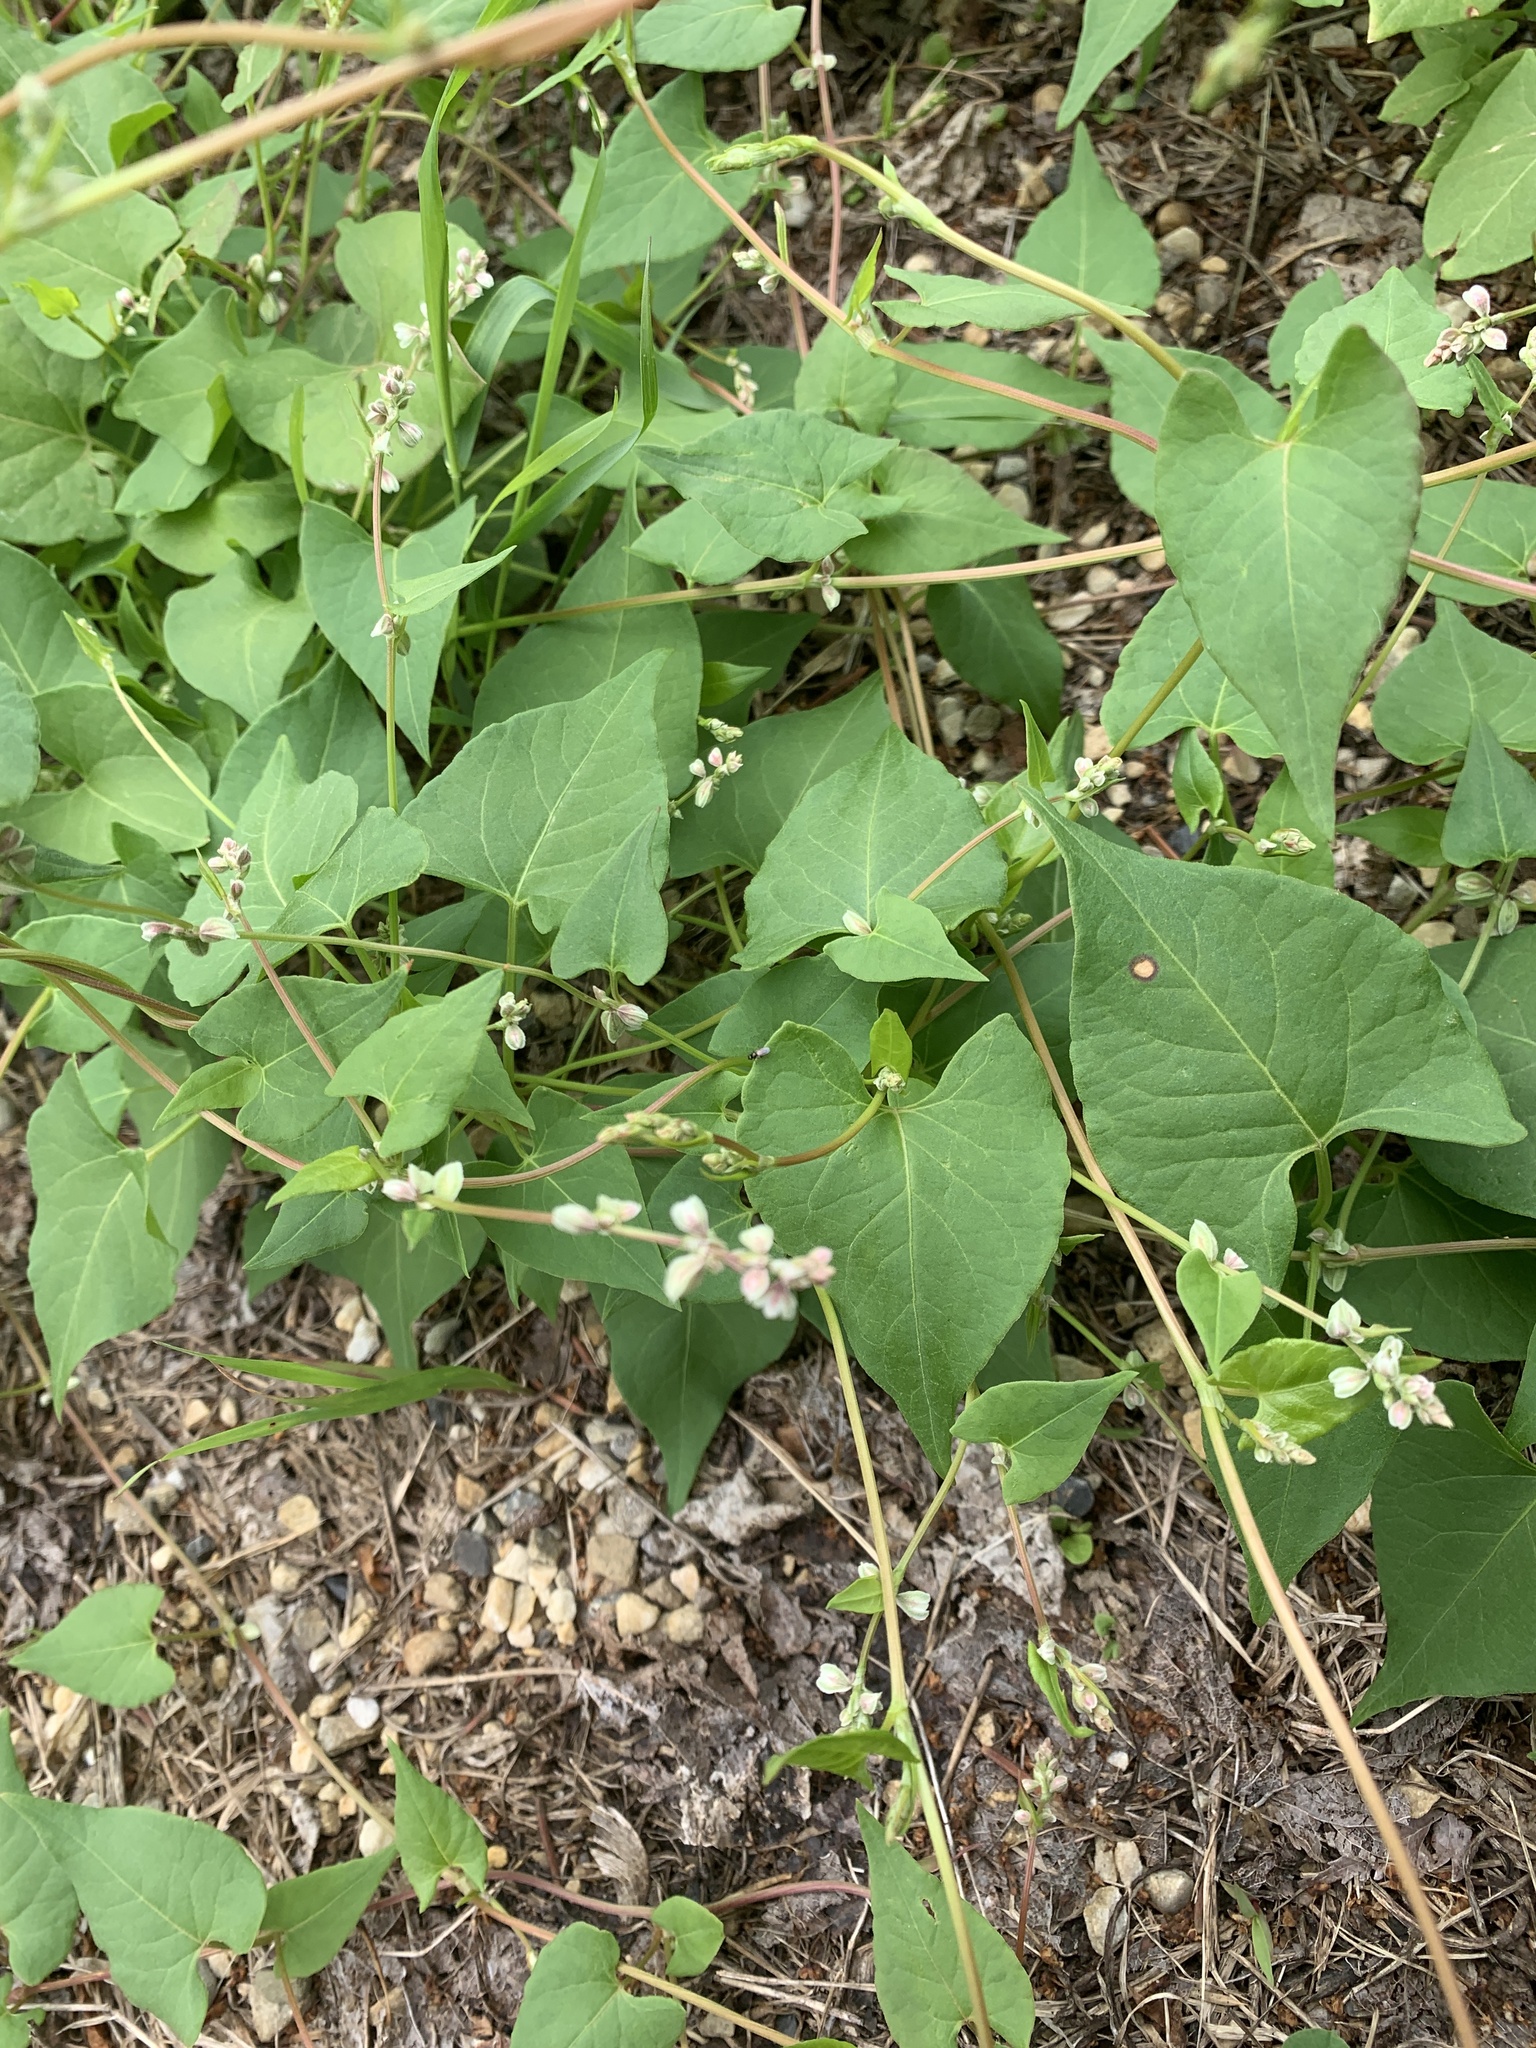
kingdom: Plantae
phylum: Tracheophyta
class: Magnoliopsida
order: Caryophyllales
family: Polygonaceae
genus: Fallopia
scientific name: Fallopia convolvulus
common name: Black bindweed
